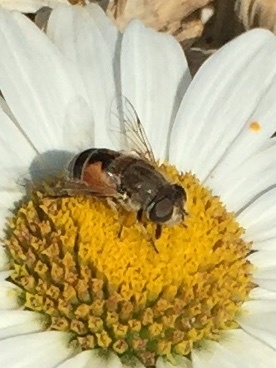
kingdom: Animalia
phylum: Arthropoda
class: Insecta
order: Diptera
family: Syrphidae
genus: Eristalis
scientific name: Eristalis arbustorum
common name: Hover fly
